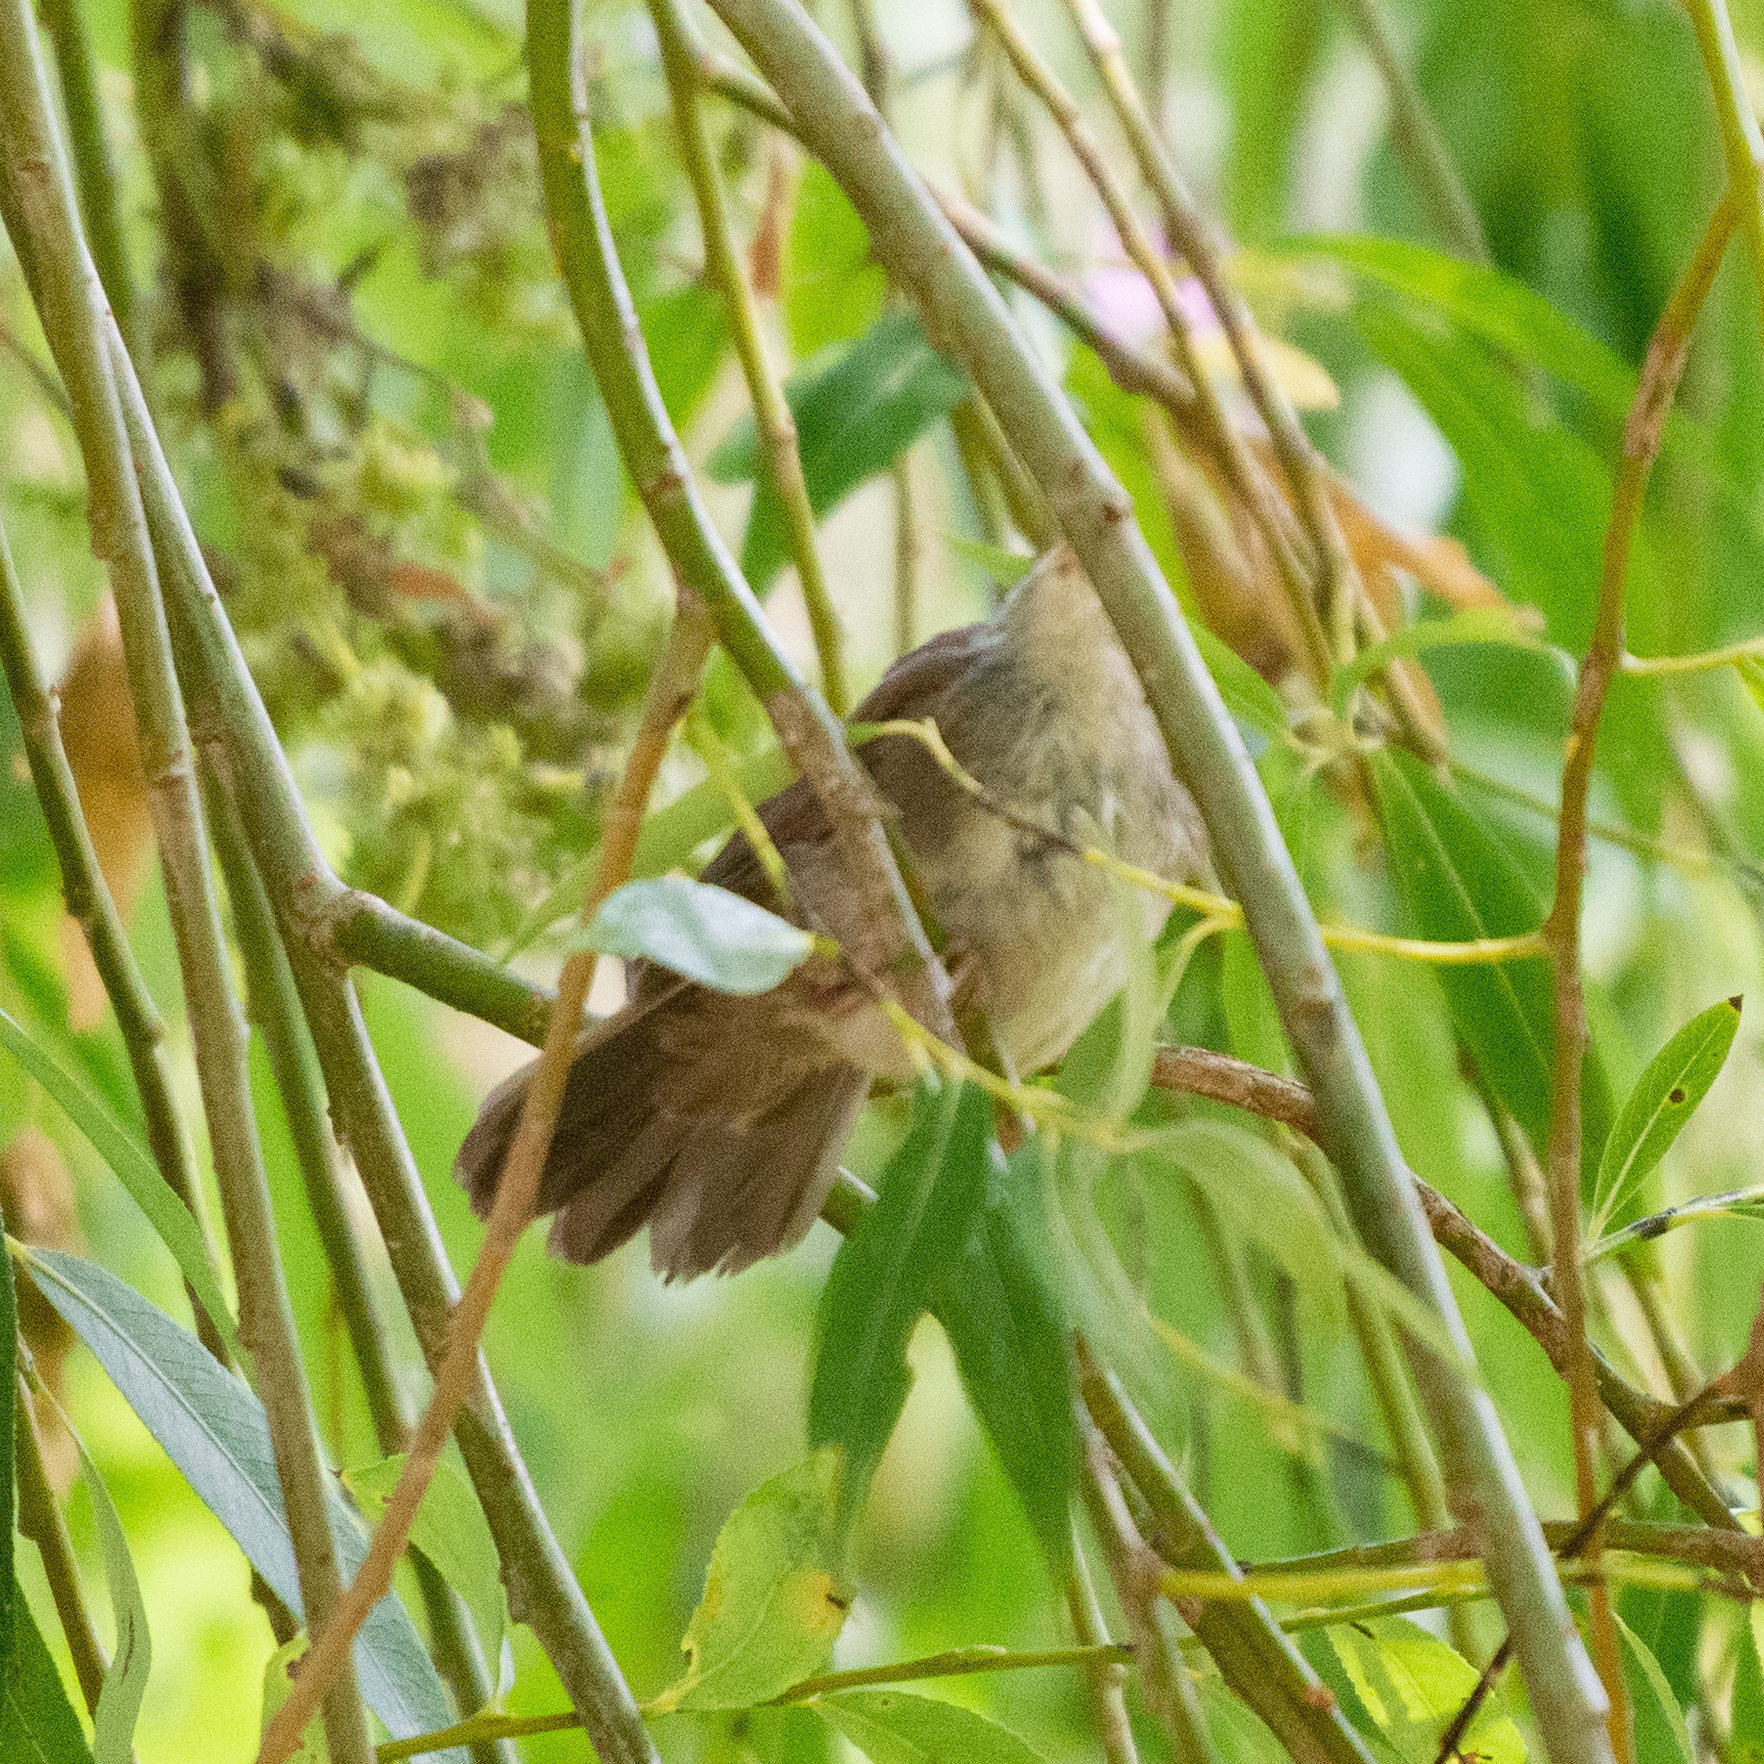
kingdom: Animalia
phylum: Chordata
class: Aves
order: Passeriformes
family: Cettiidae
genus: Cettia
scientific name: Cettia cetti
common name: Cetti's warbler
